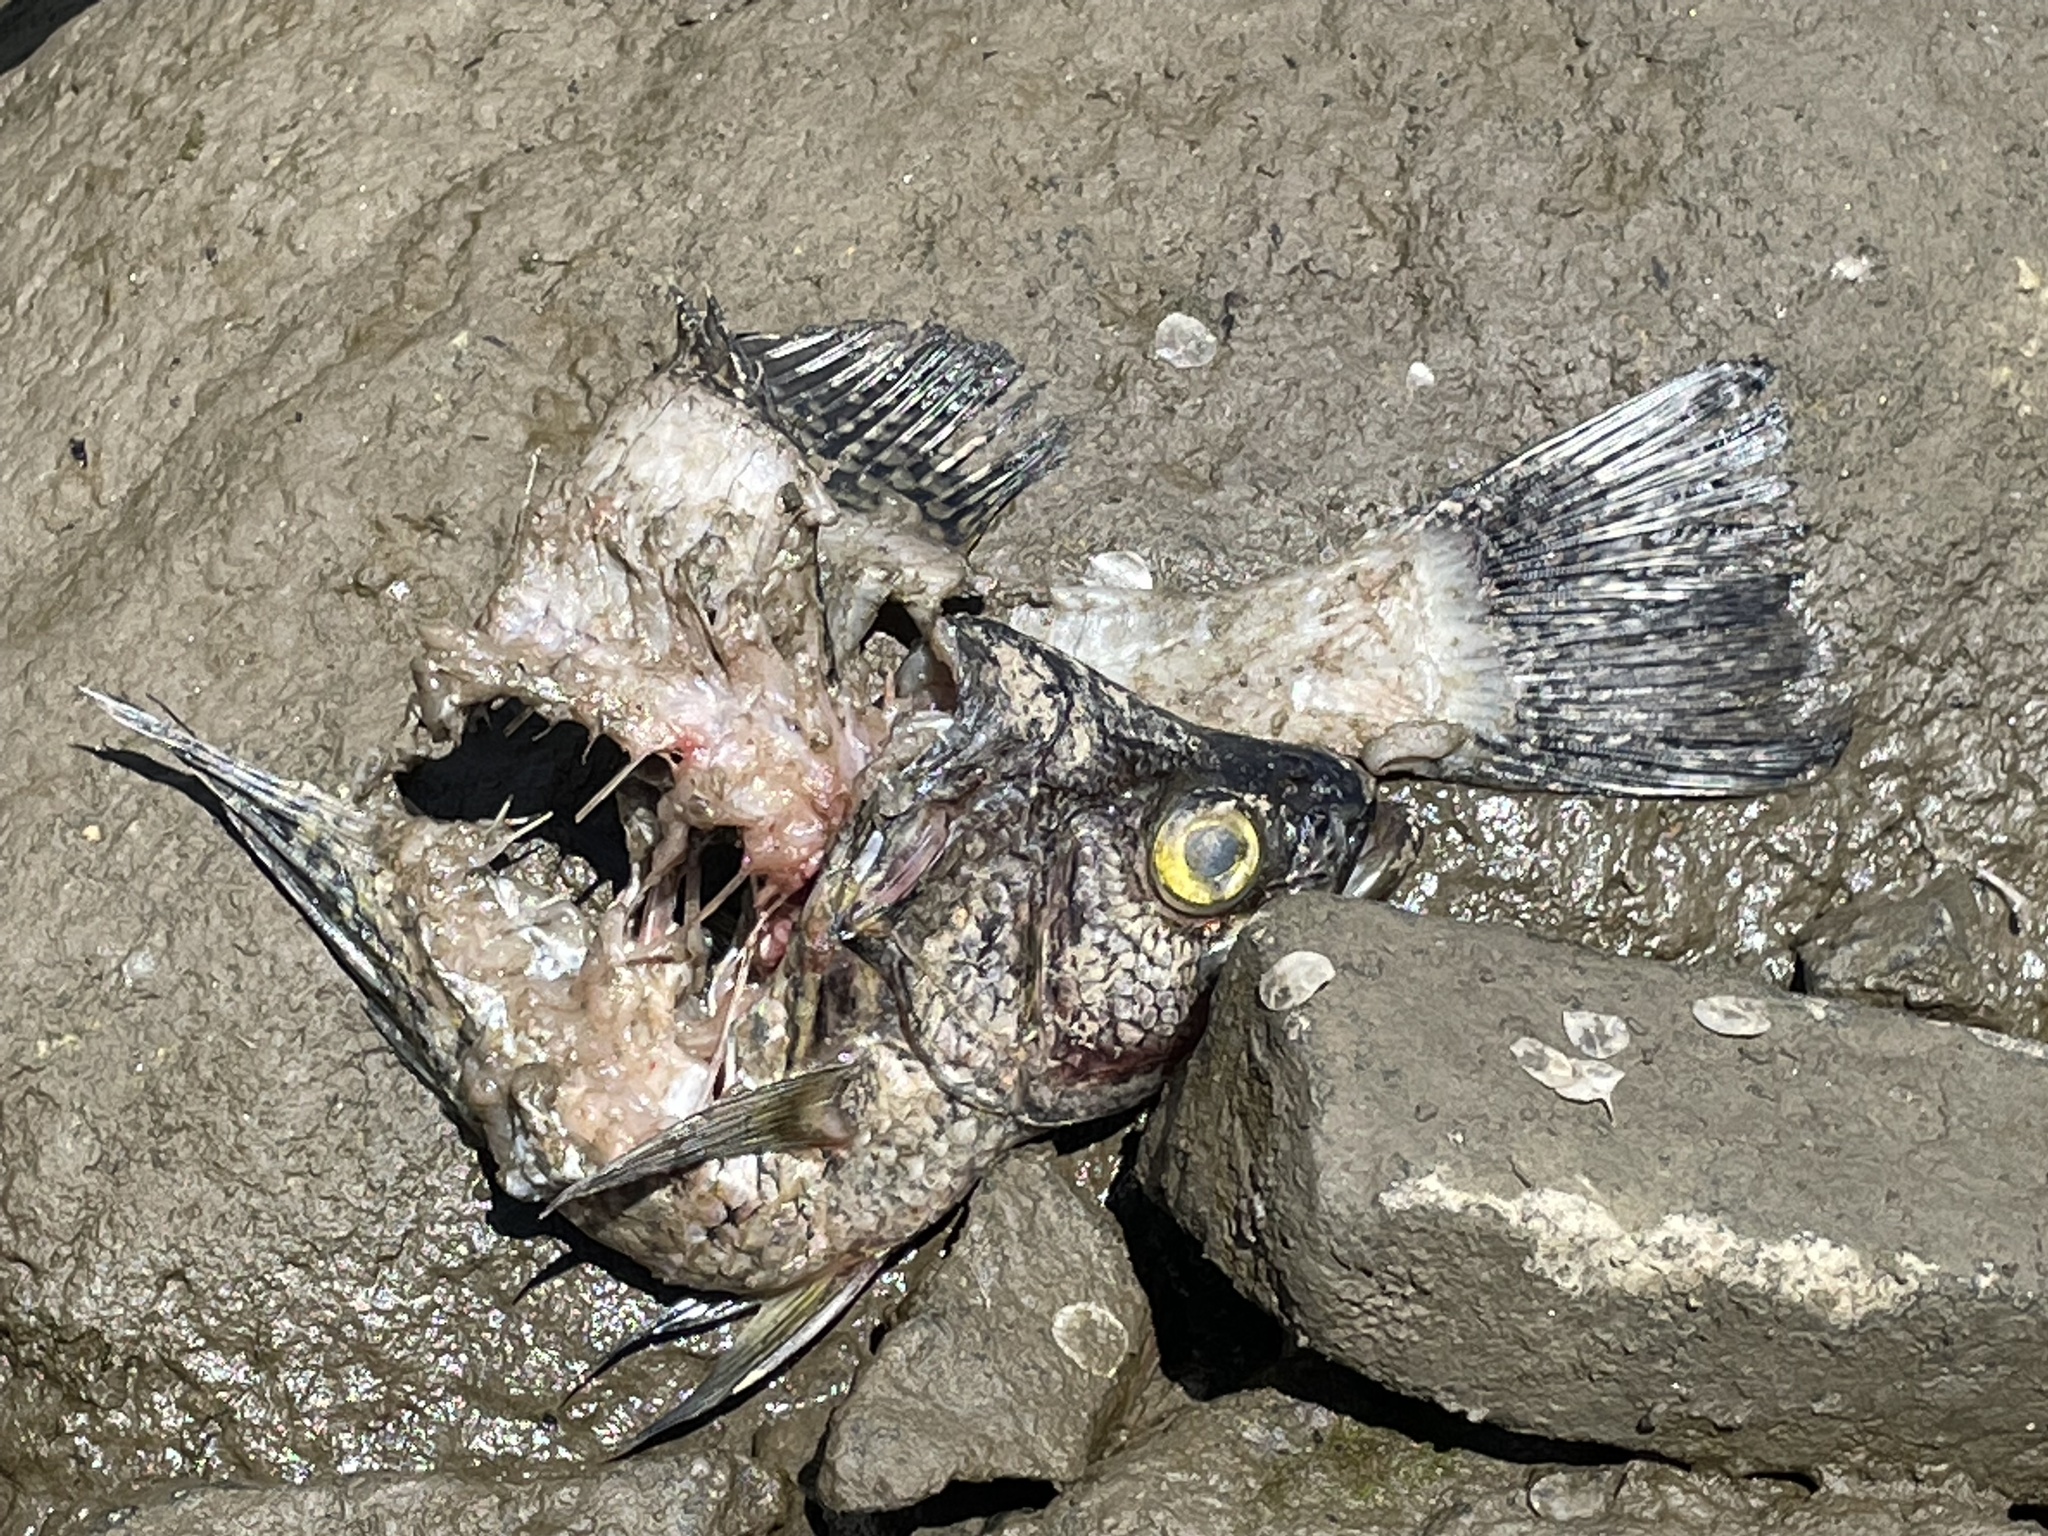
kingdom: Animalia
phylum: Chordata
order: Perciformes
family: Centrarchidae
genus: Pomoxis
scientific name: Pomoxis nigromaculatus
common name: Black crappie
